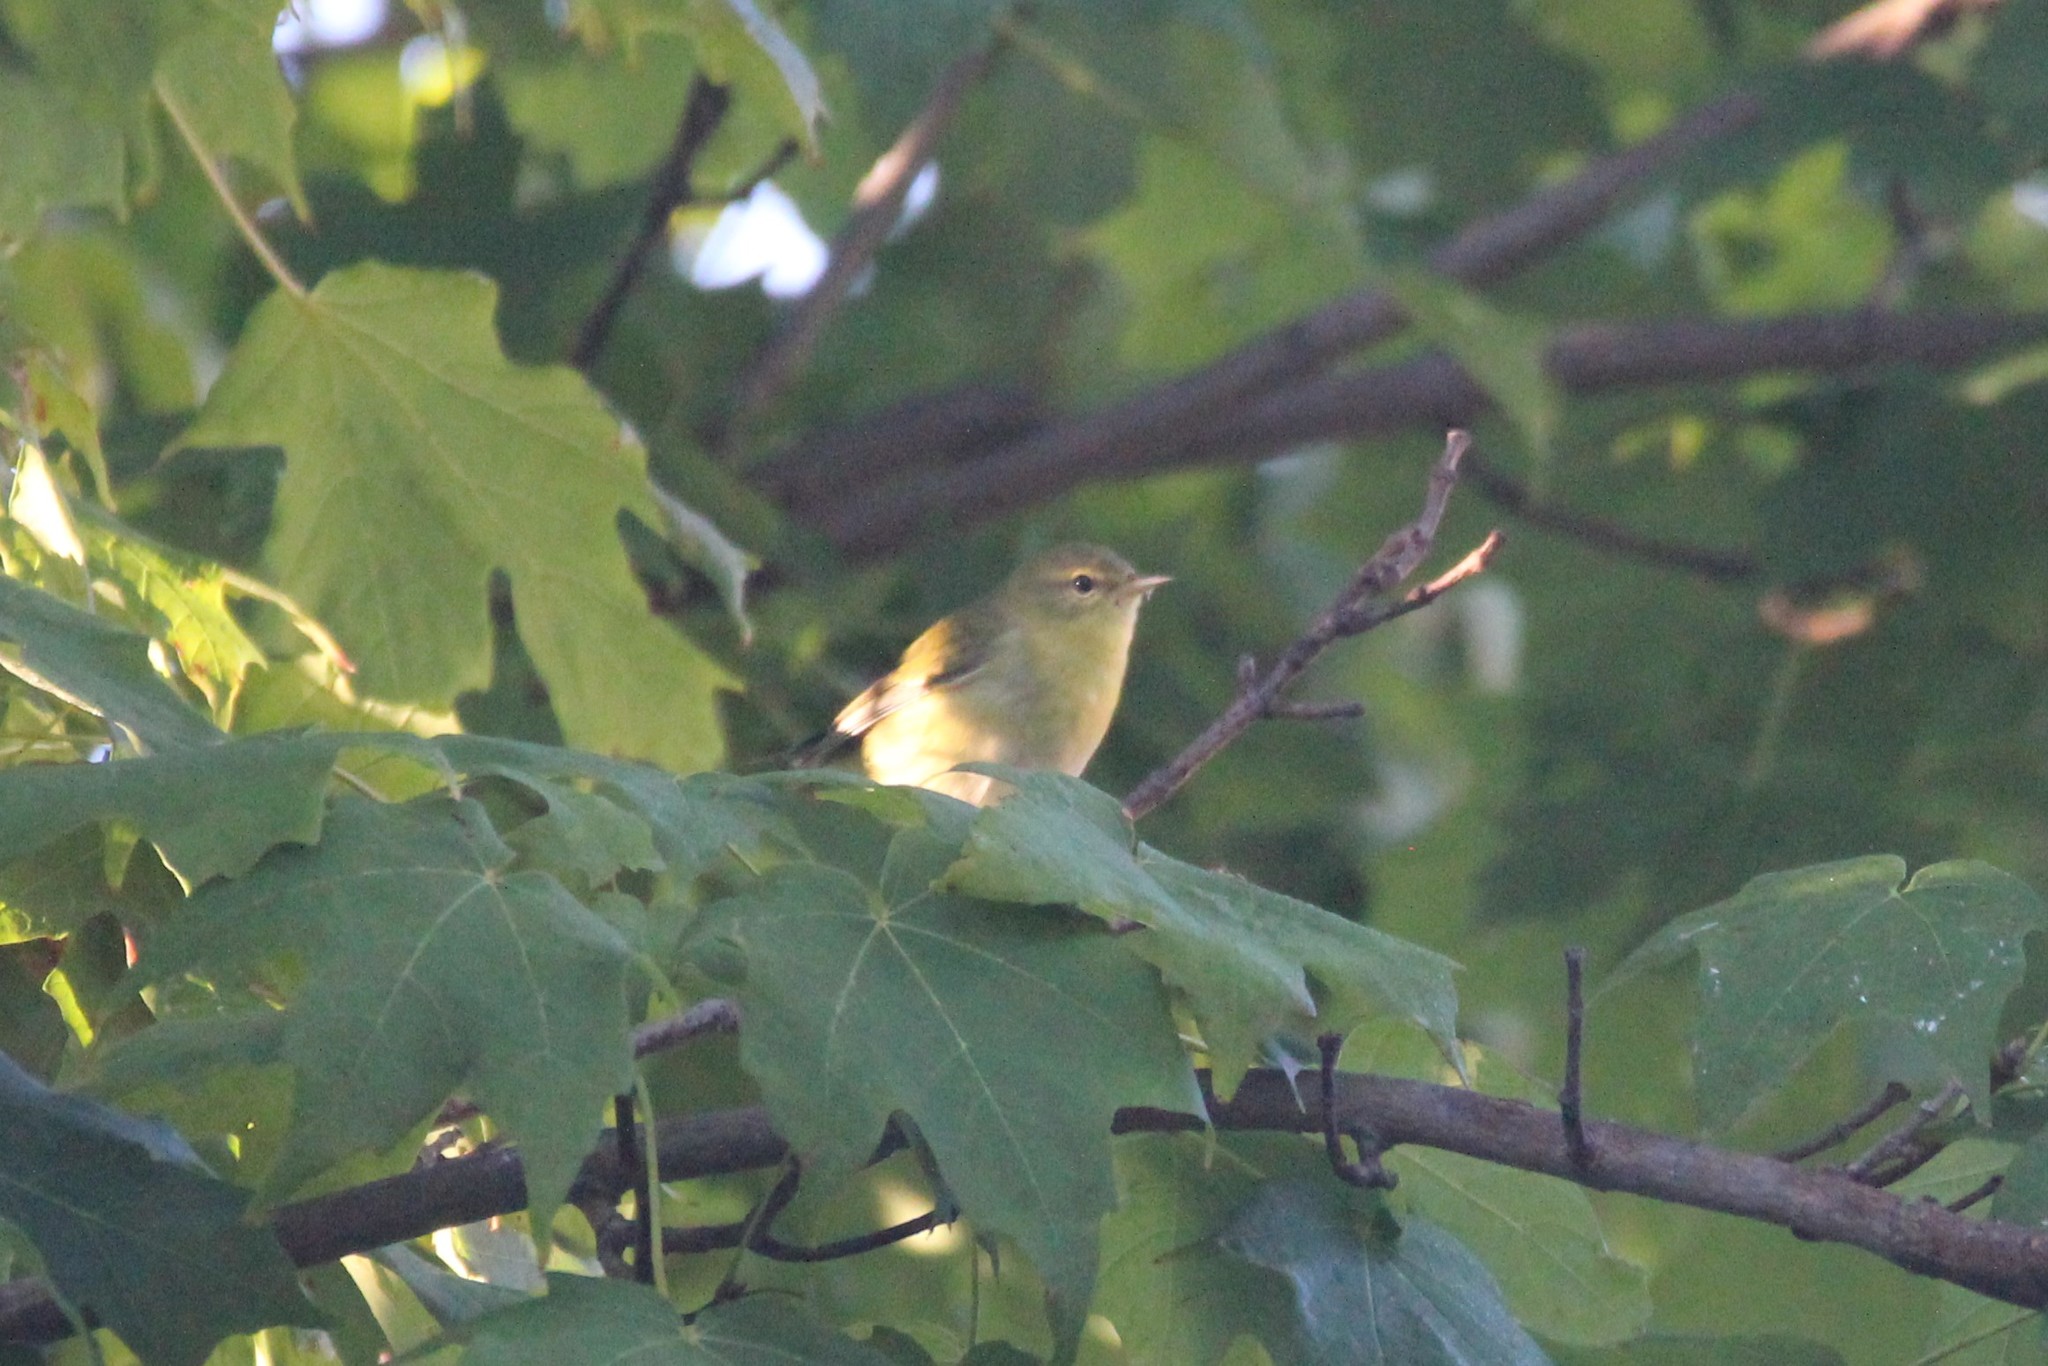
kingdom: Animalia
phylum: Chordata
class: Aves
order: Passeriformes
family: Parulidae
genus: Leiothlypis
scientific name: Leiothlypis peregrina
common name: Tennessee warbler
